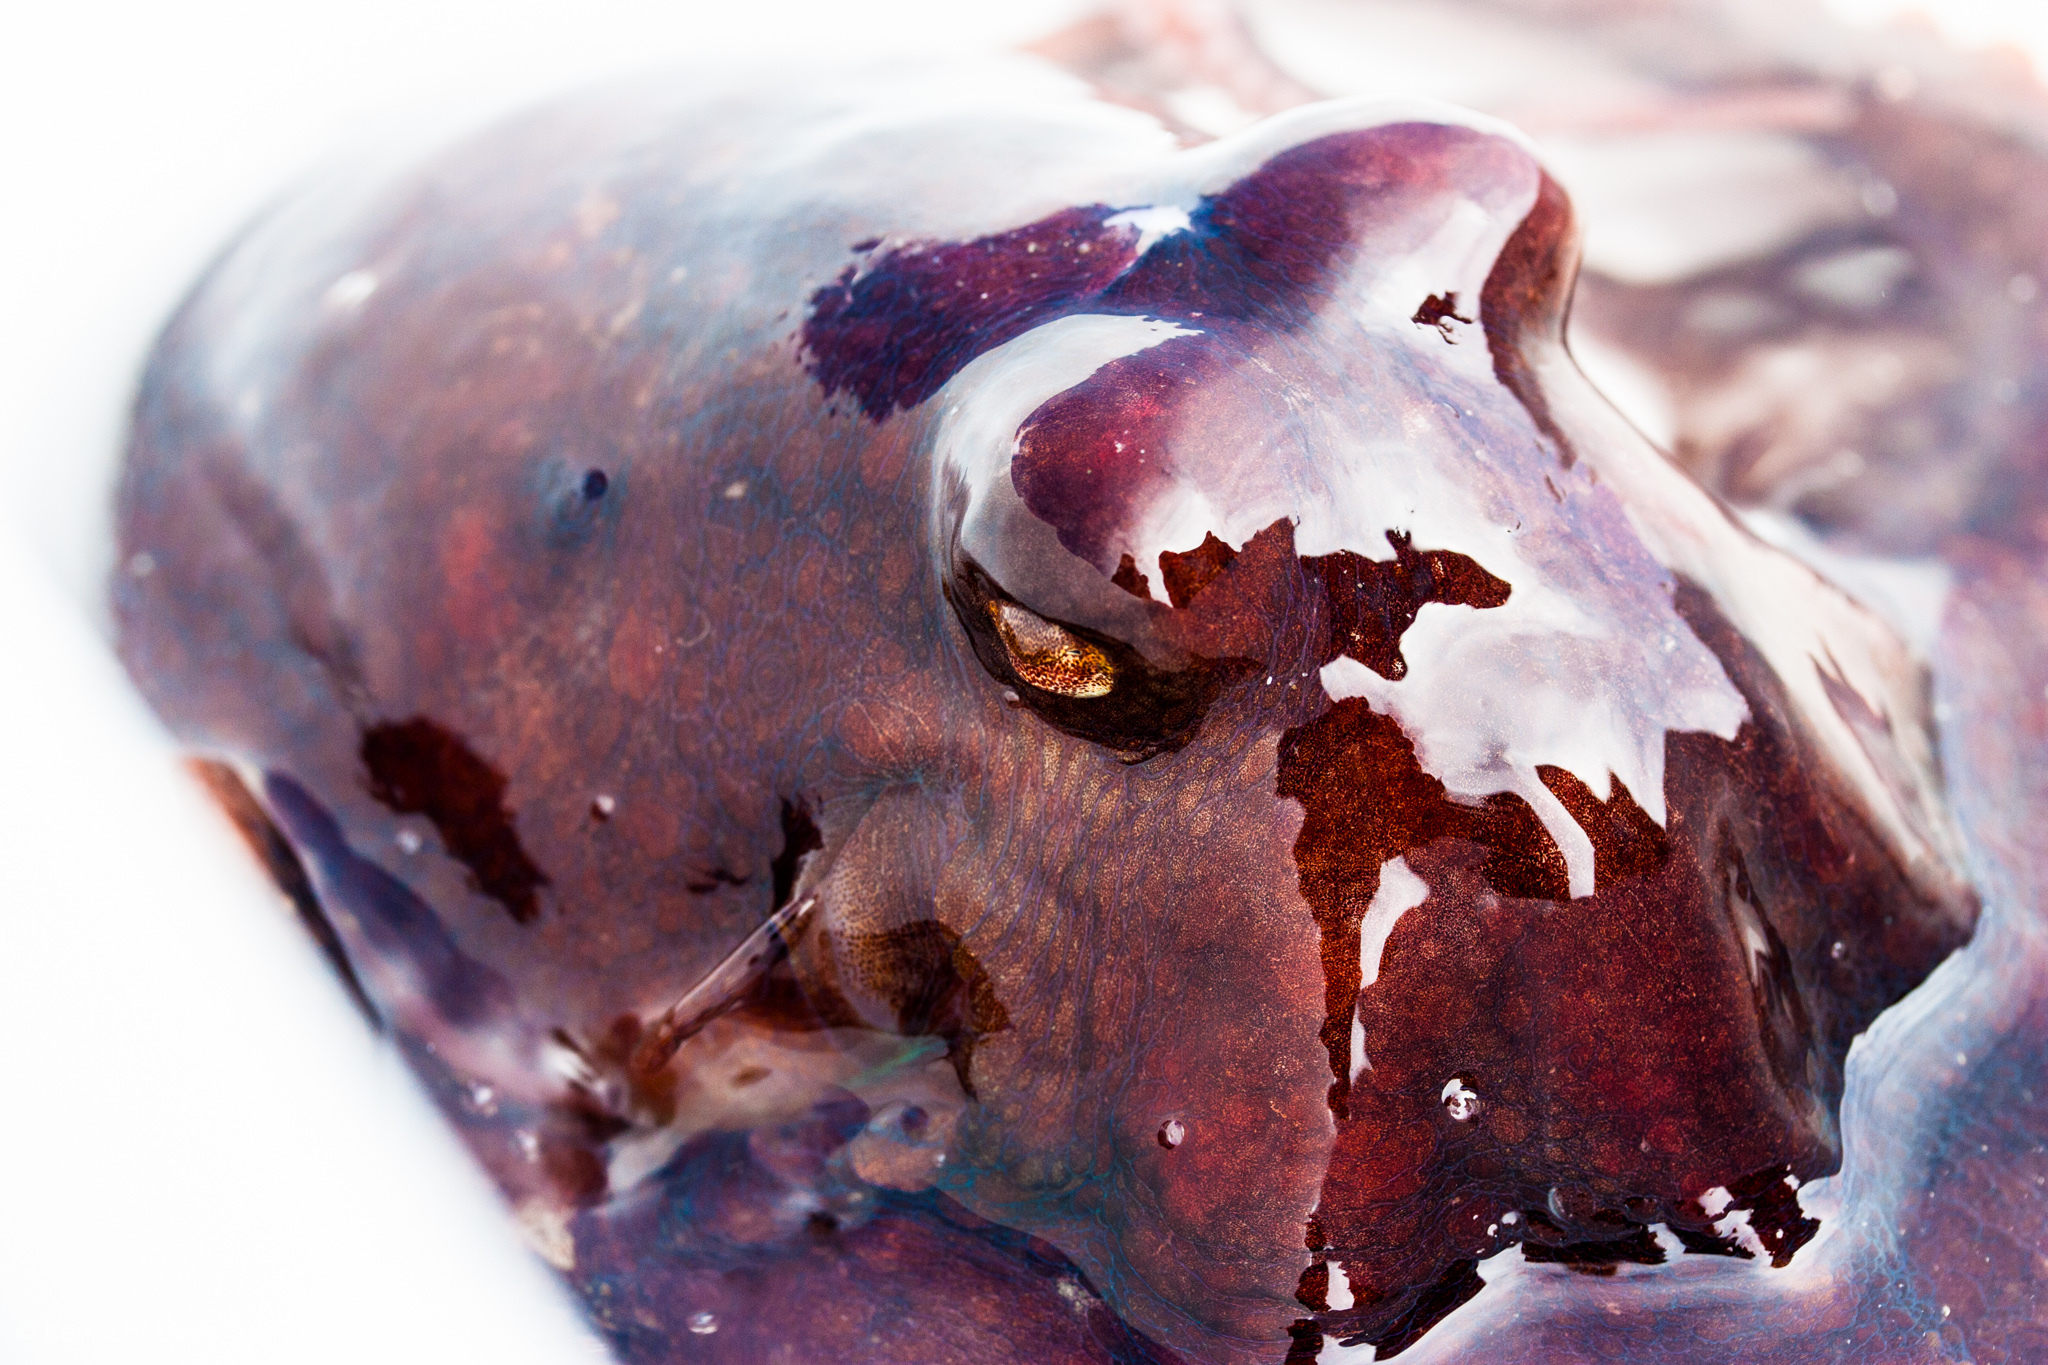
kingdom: Animalia
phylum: Mollusca
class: Cephalopoda
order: Octopoda
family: Octopodidae
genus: Octopus
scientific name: Octopus rubescens
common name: East pacific red octopus
